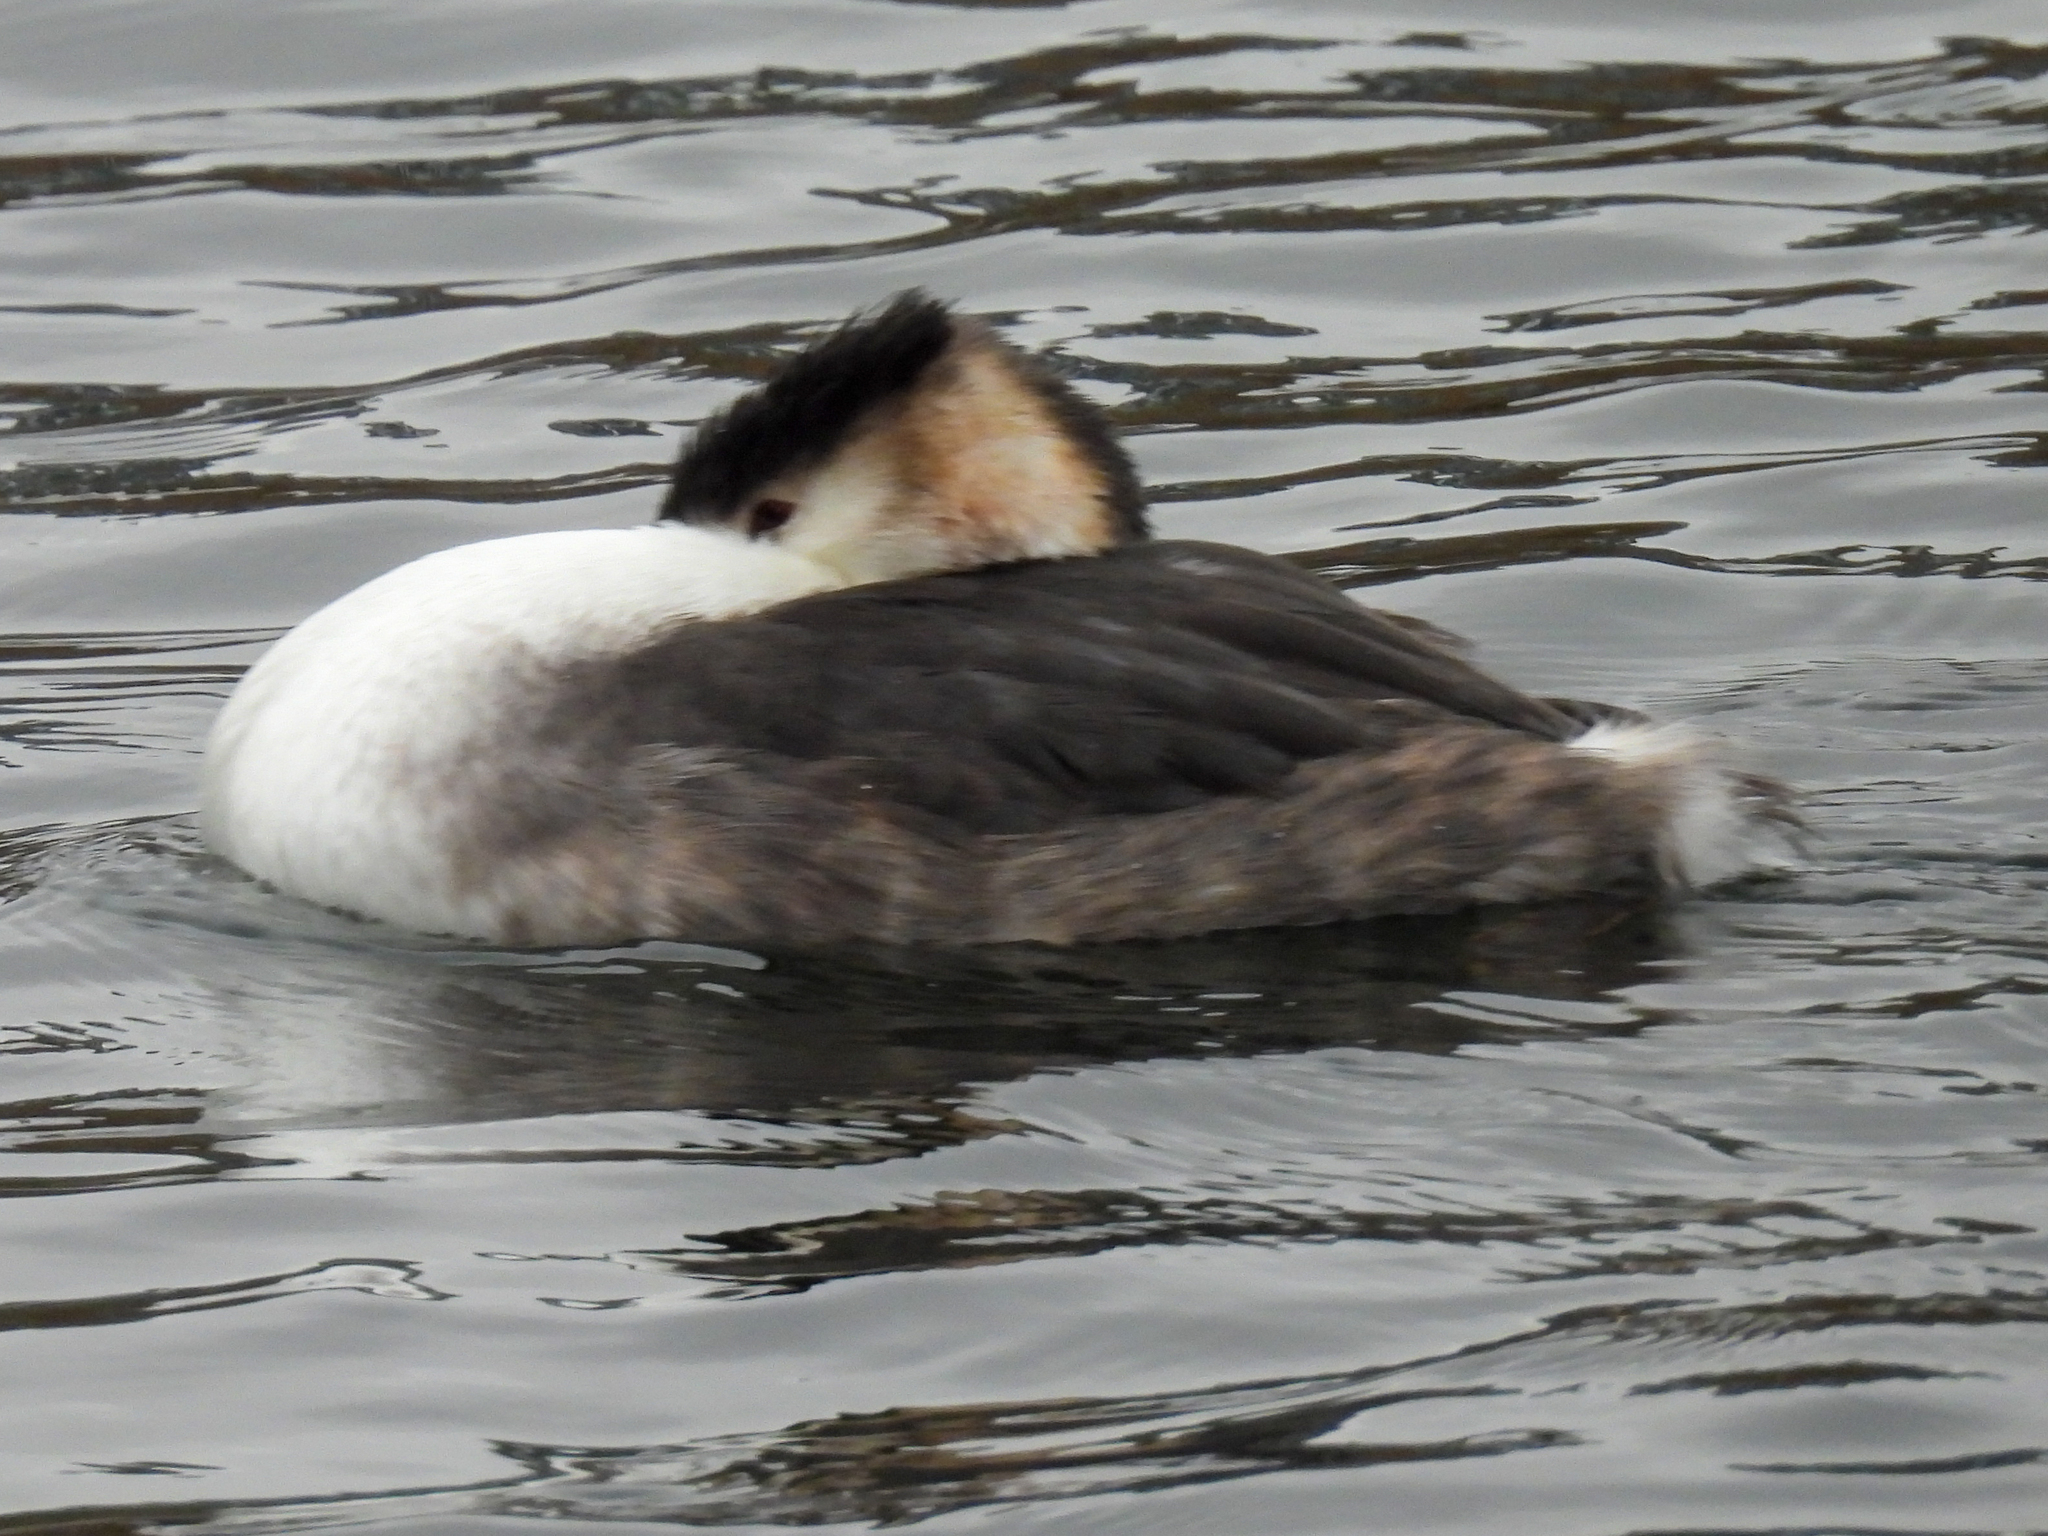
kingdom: Animalia
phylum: Chordata
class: Aves
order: Podicipediformes
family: Podicipedidae
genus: Podiceps
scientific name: Podiceps cristatus
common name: Great crested grebe
